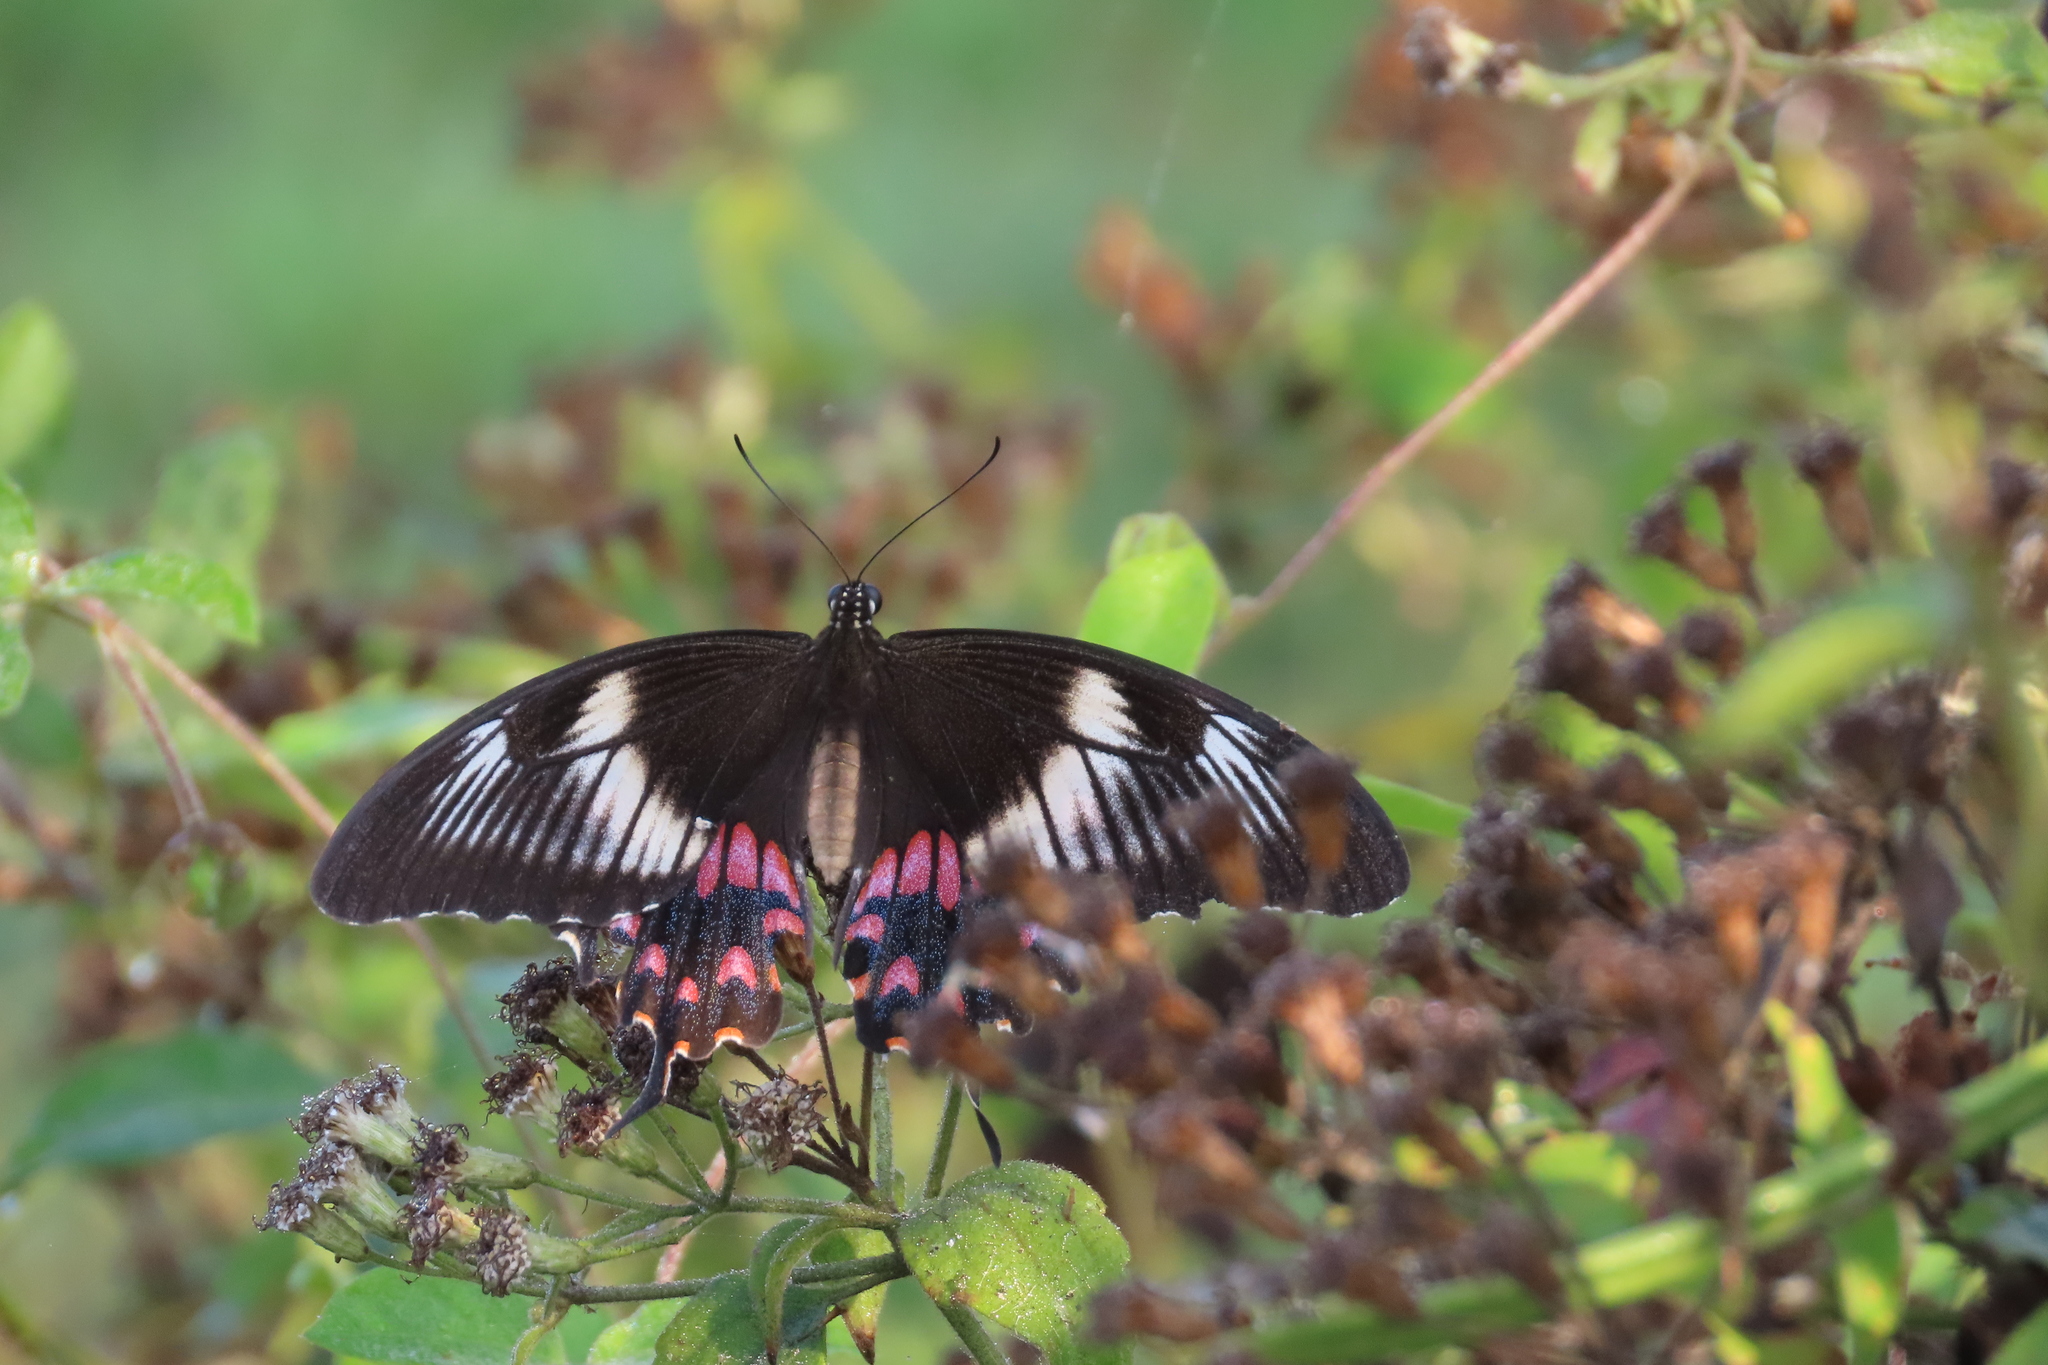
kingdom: Animalia
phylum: Arthropoda
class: Insecta
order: Lepidoptera
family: Papilionidae
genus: Papilio
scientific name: Papilio polytes
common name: Common mormon
